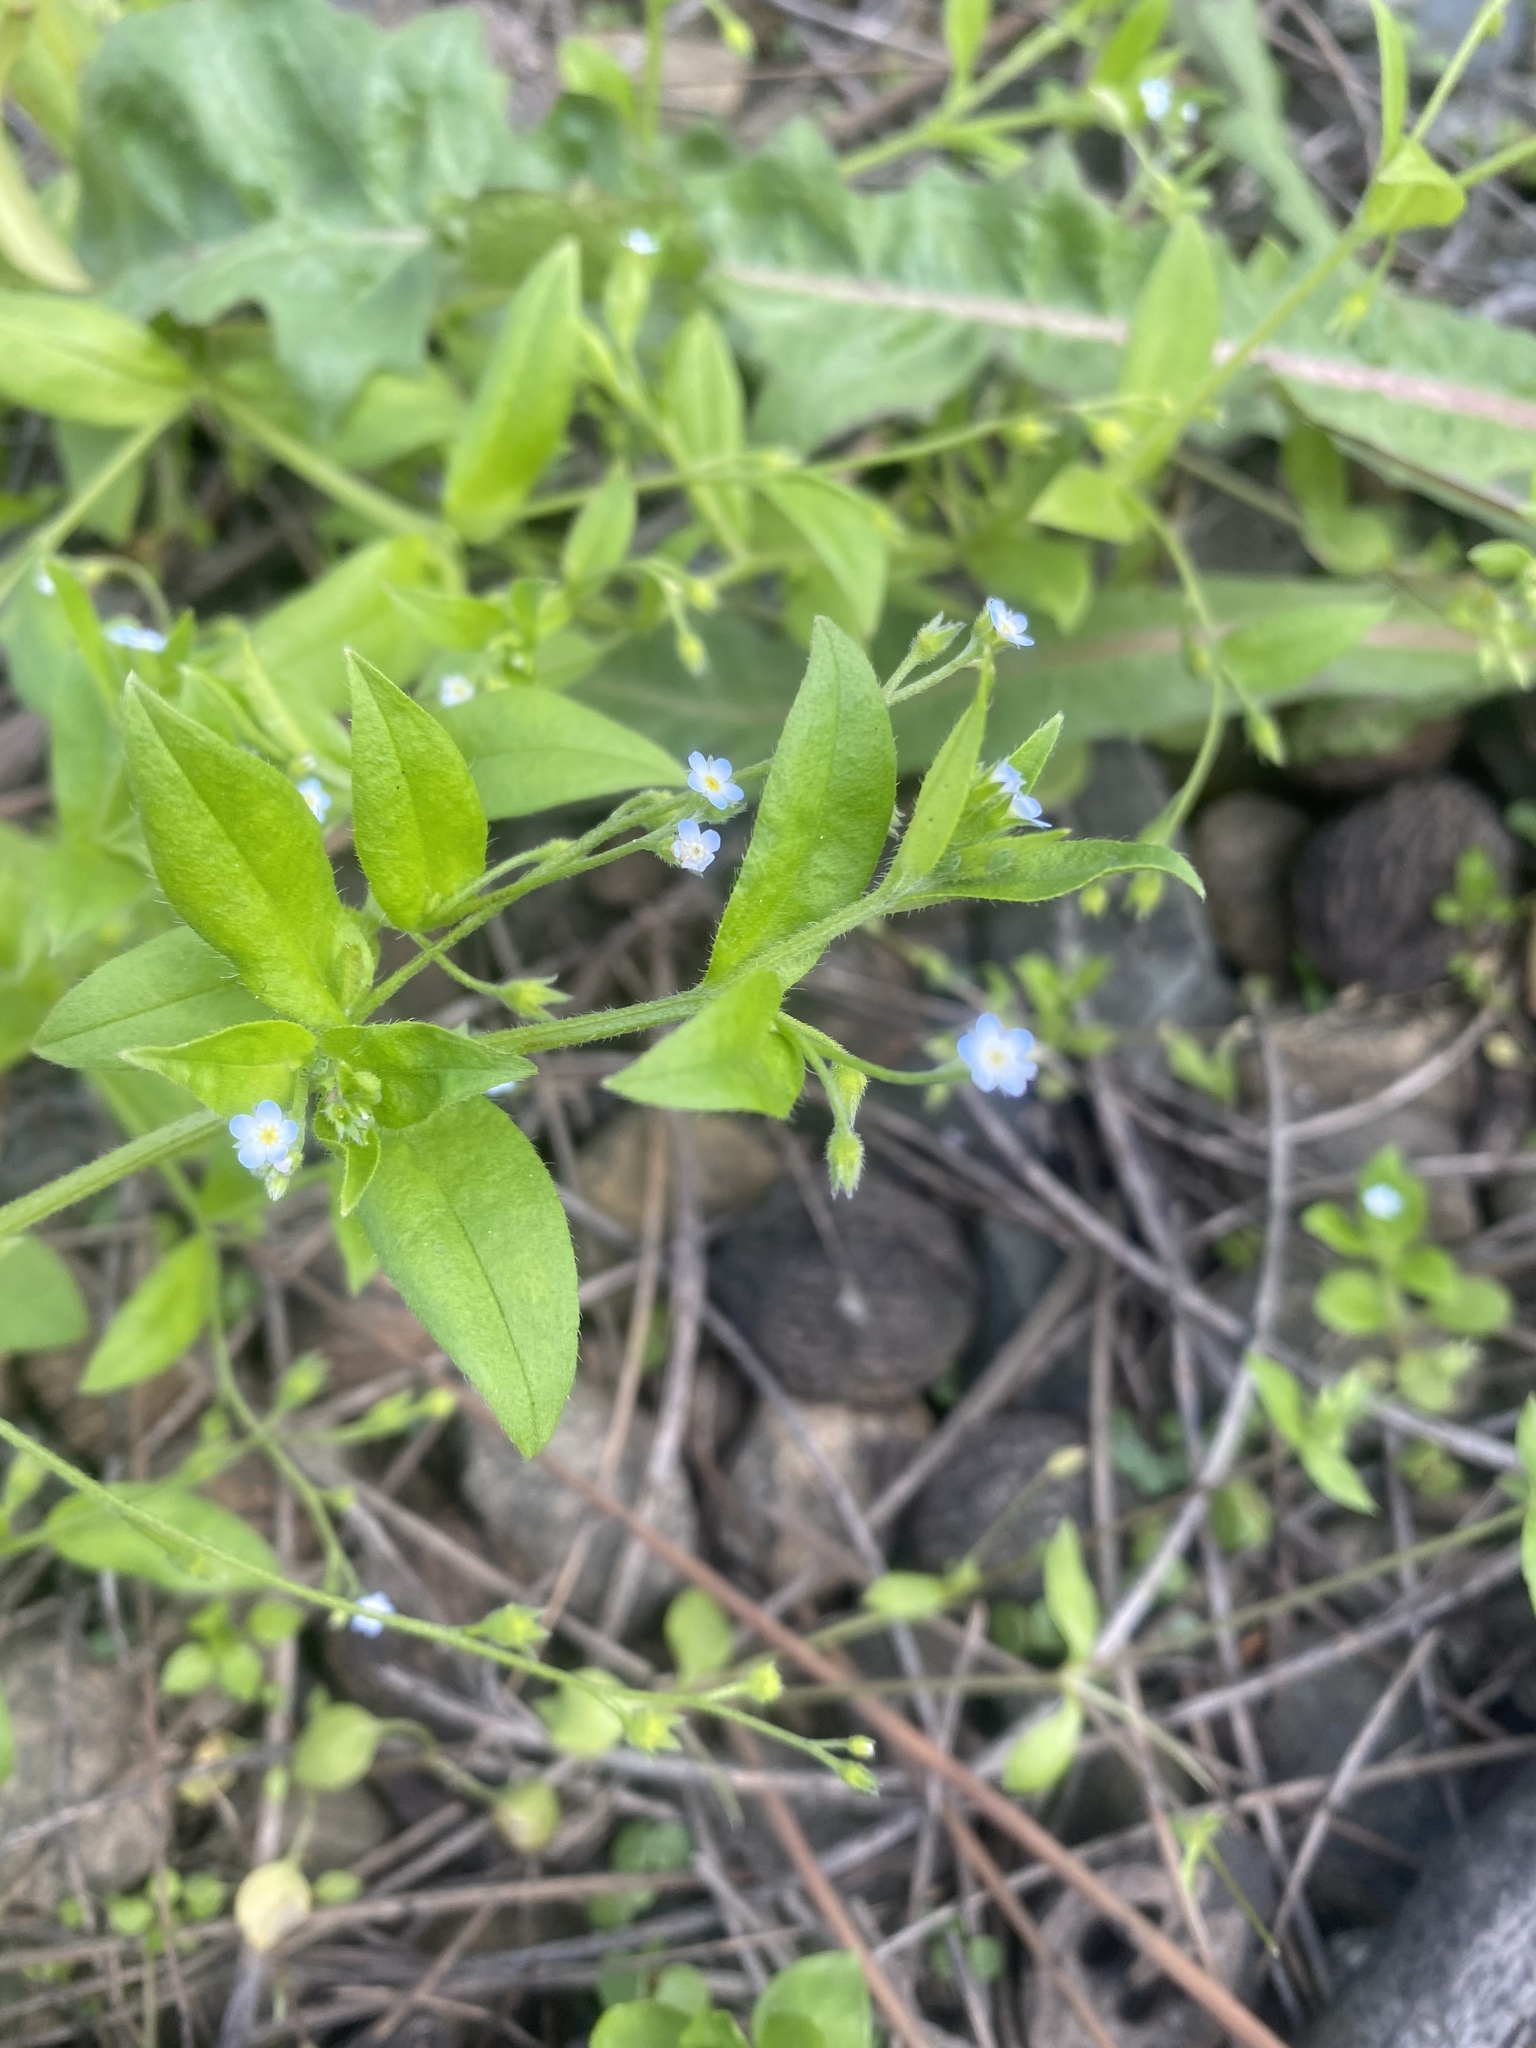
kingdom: Plantae
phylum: Tracheophyta
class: Magnoliopsida
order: Boraginales
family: Boraginaceae
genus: Myosotis
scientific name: Myosotis sparsiflora
